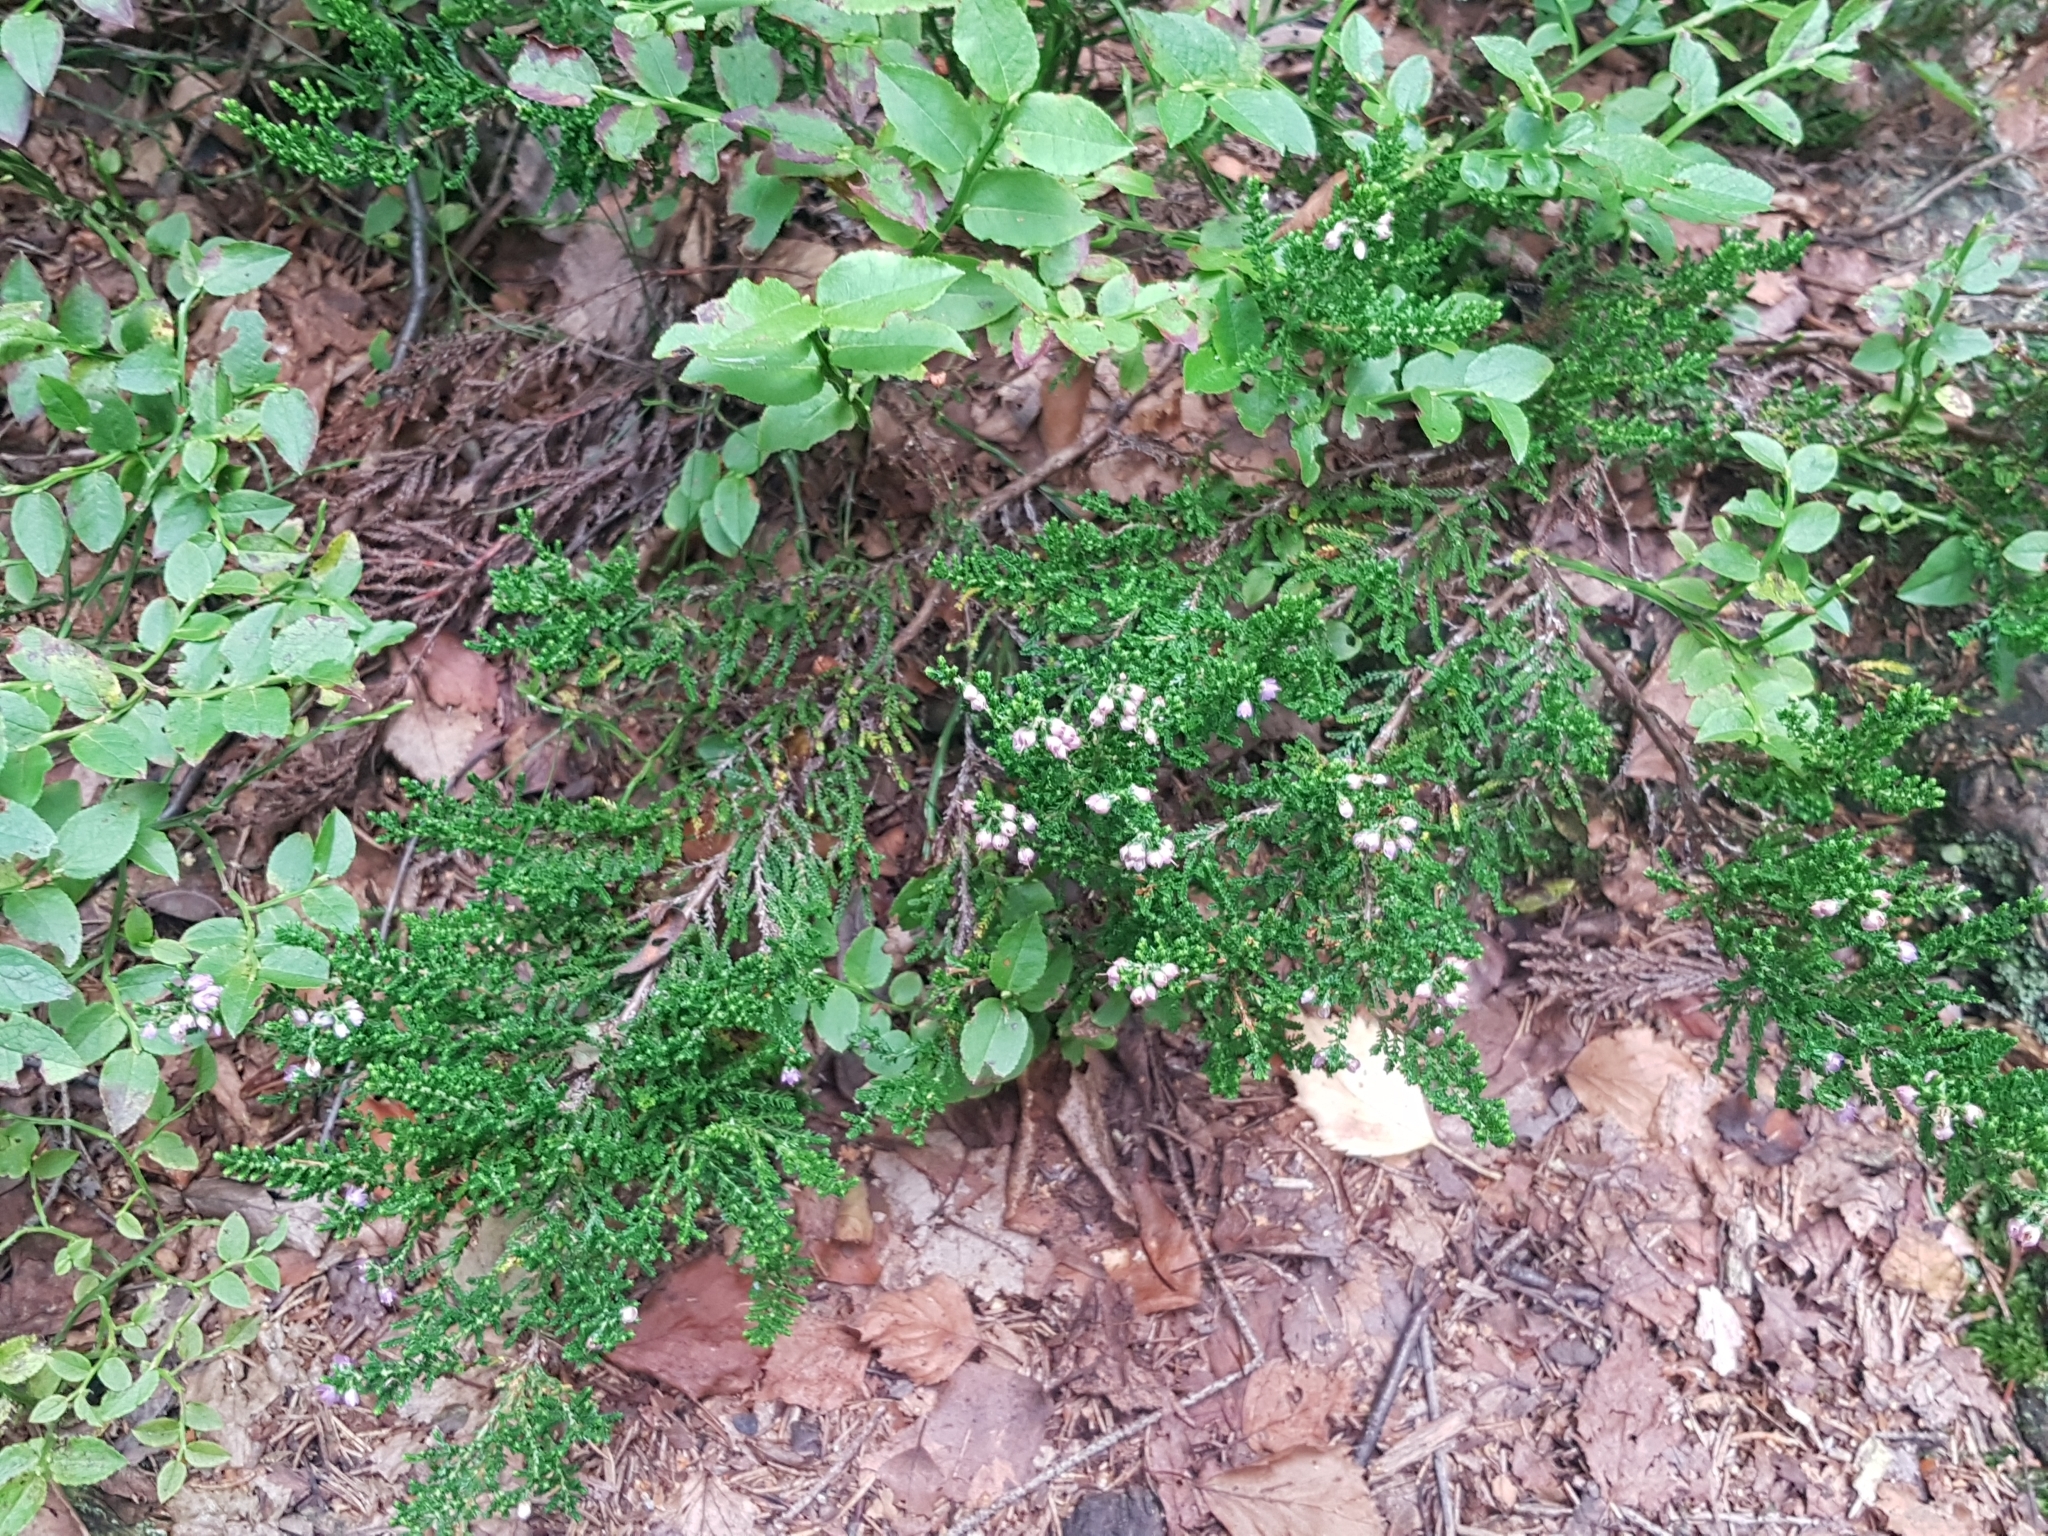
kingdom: Plantae
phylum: Tracheophyta
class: Magnoliopsida
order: Ericales
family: Ericaceae
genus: Calluna
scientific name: Calluna vulgaris
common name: Heather
